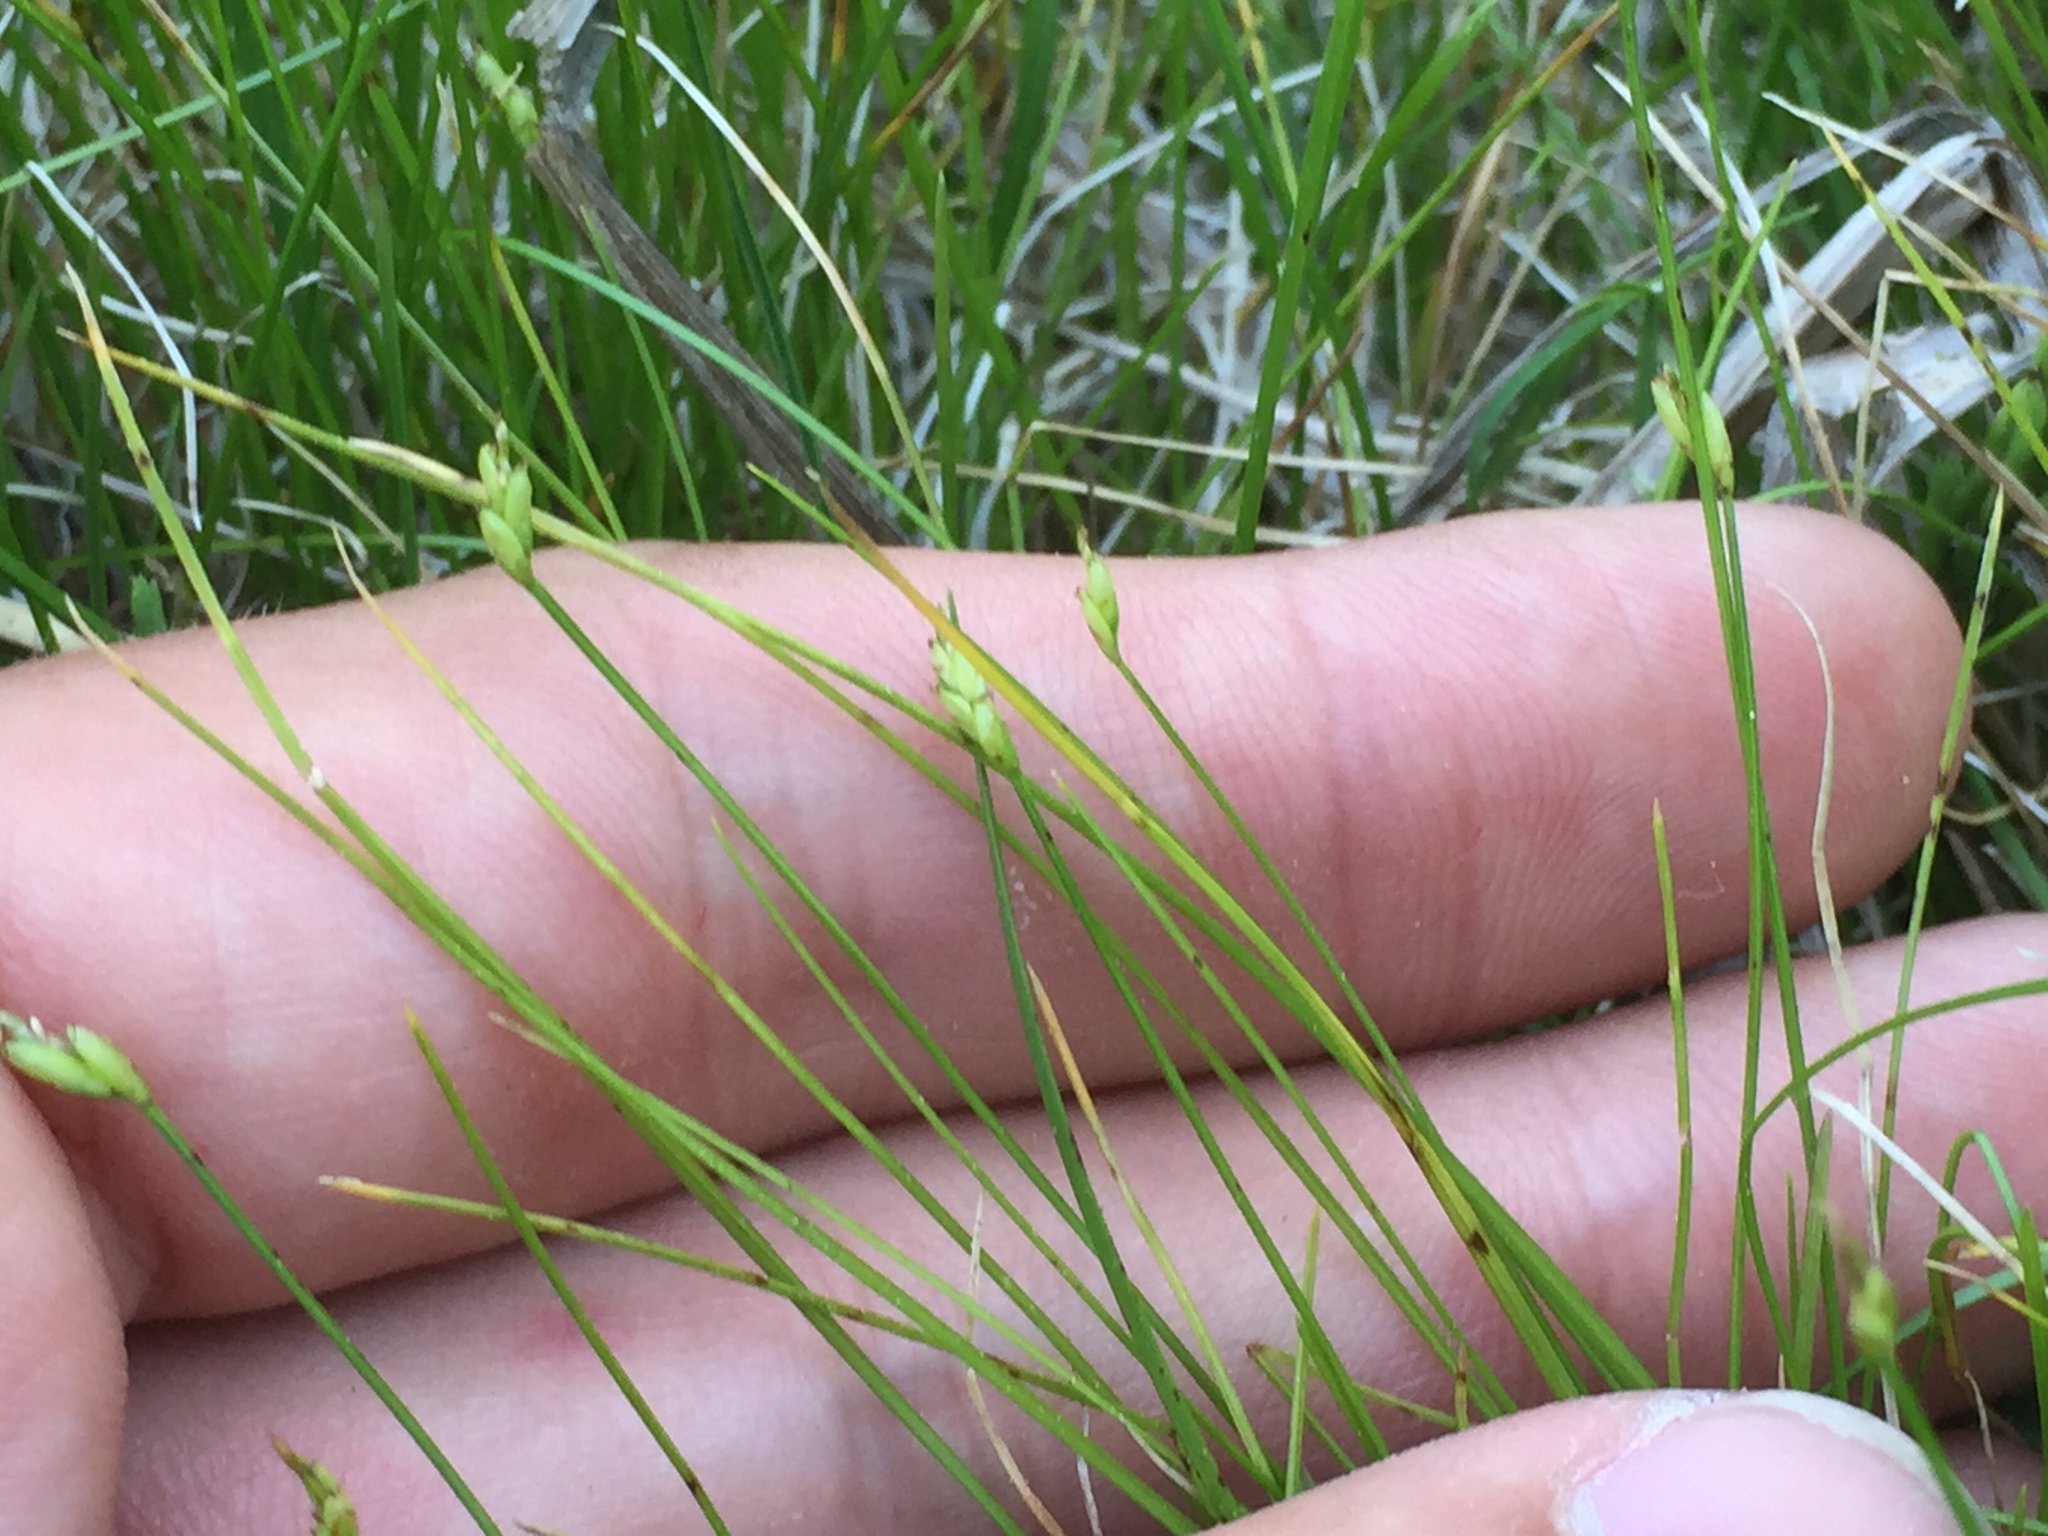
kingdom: Plantae
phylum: Tracheophyta
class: Liliopsida
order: Poales
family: Cyperaceae
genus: Carex
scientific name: Carex leptalea
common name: Bristly-stalked sedge
